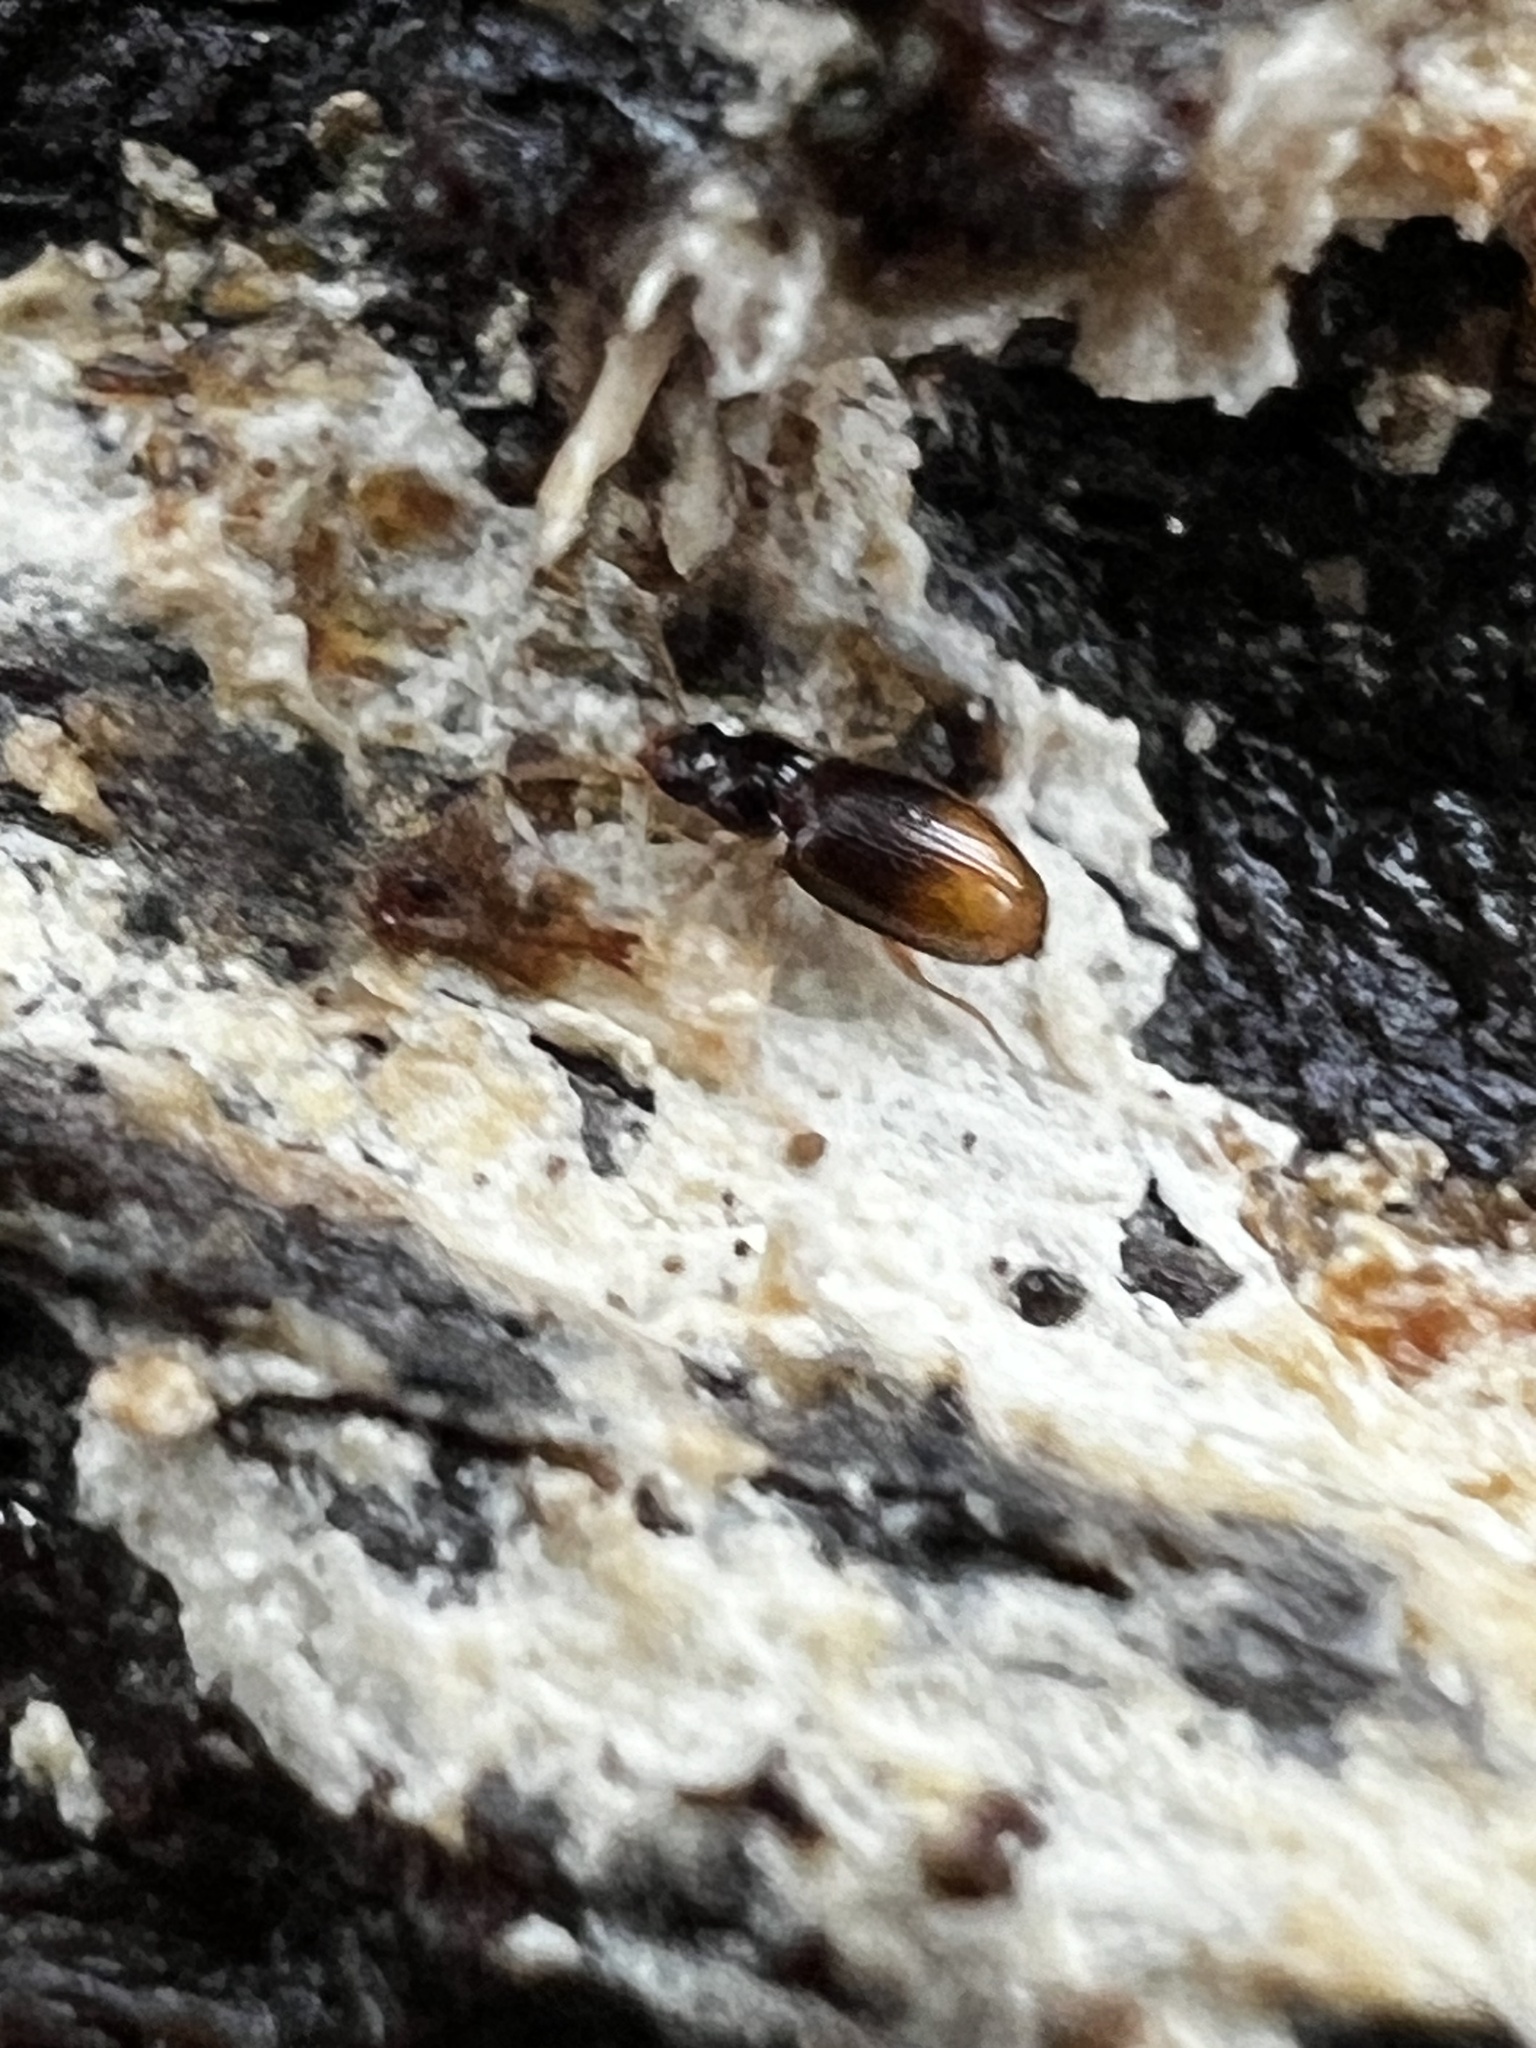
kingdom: Animalia
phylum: Arthropoda
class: Insecta
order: Coleoptera
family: Carabidae
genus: Mioptachys
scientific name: Mioptachys flavicauda
